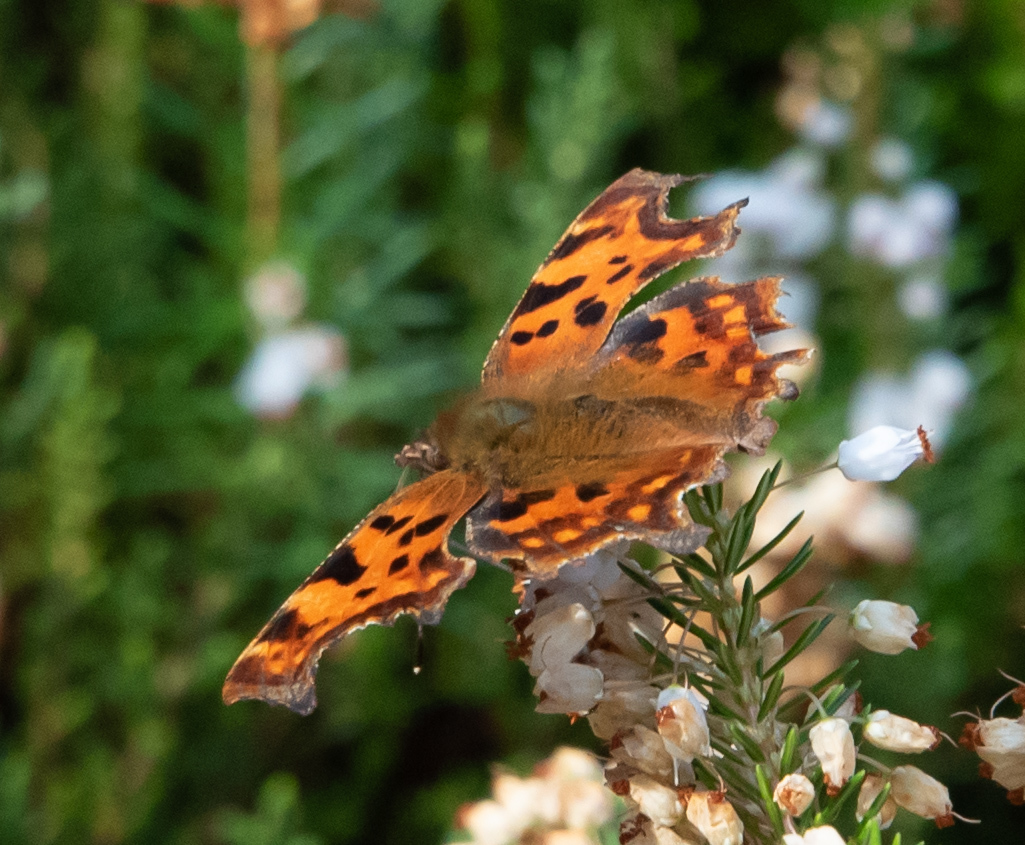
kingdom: Animalia
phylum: Arthropoda
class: Insecta
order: Lepidoptera
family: Nymphalidae
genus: Polygonia
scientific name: Polygonia c-album
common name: Comma
